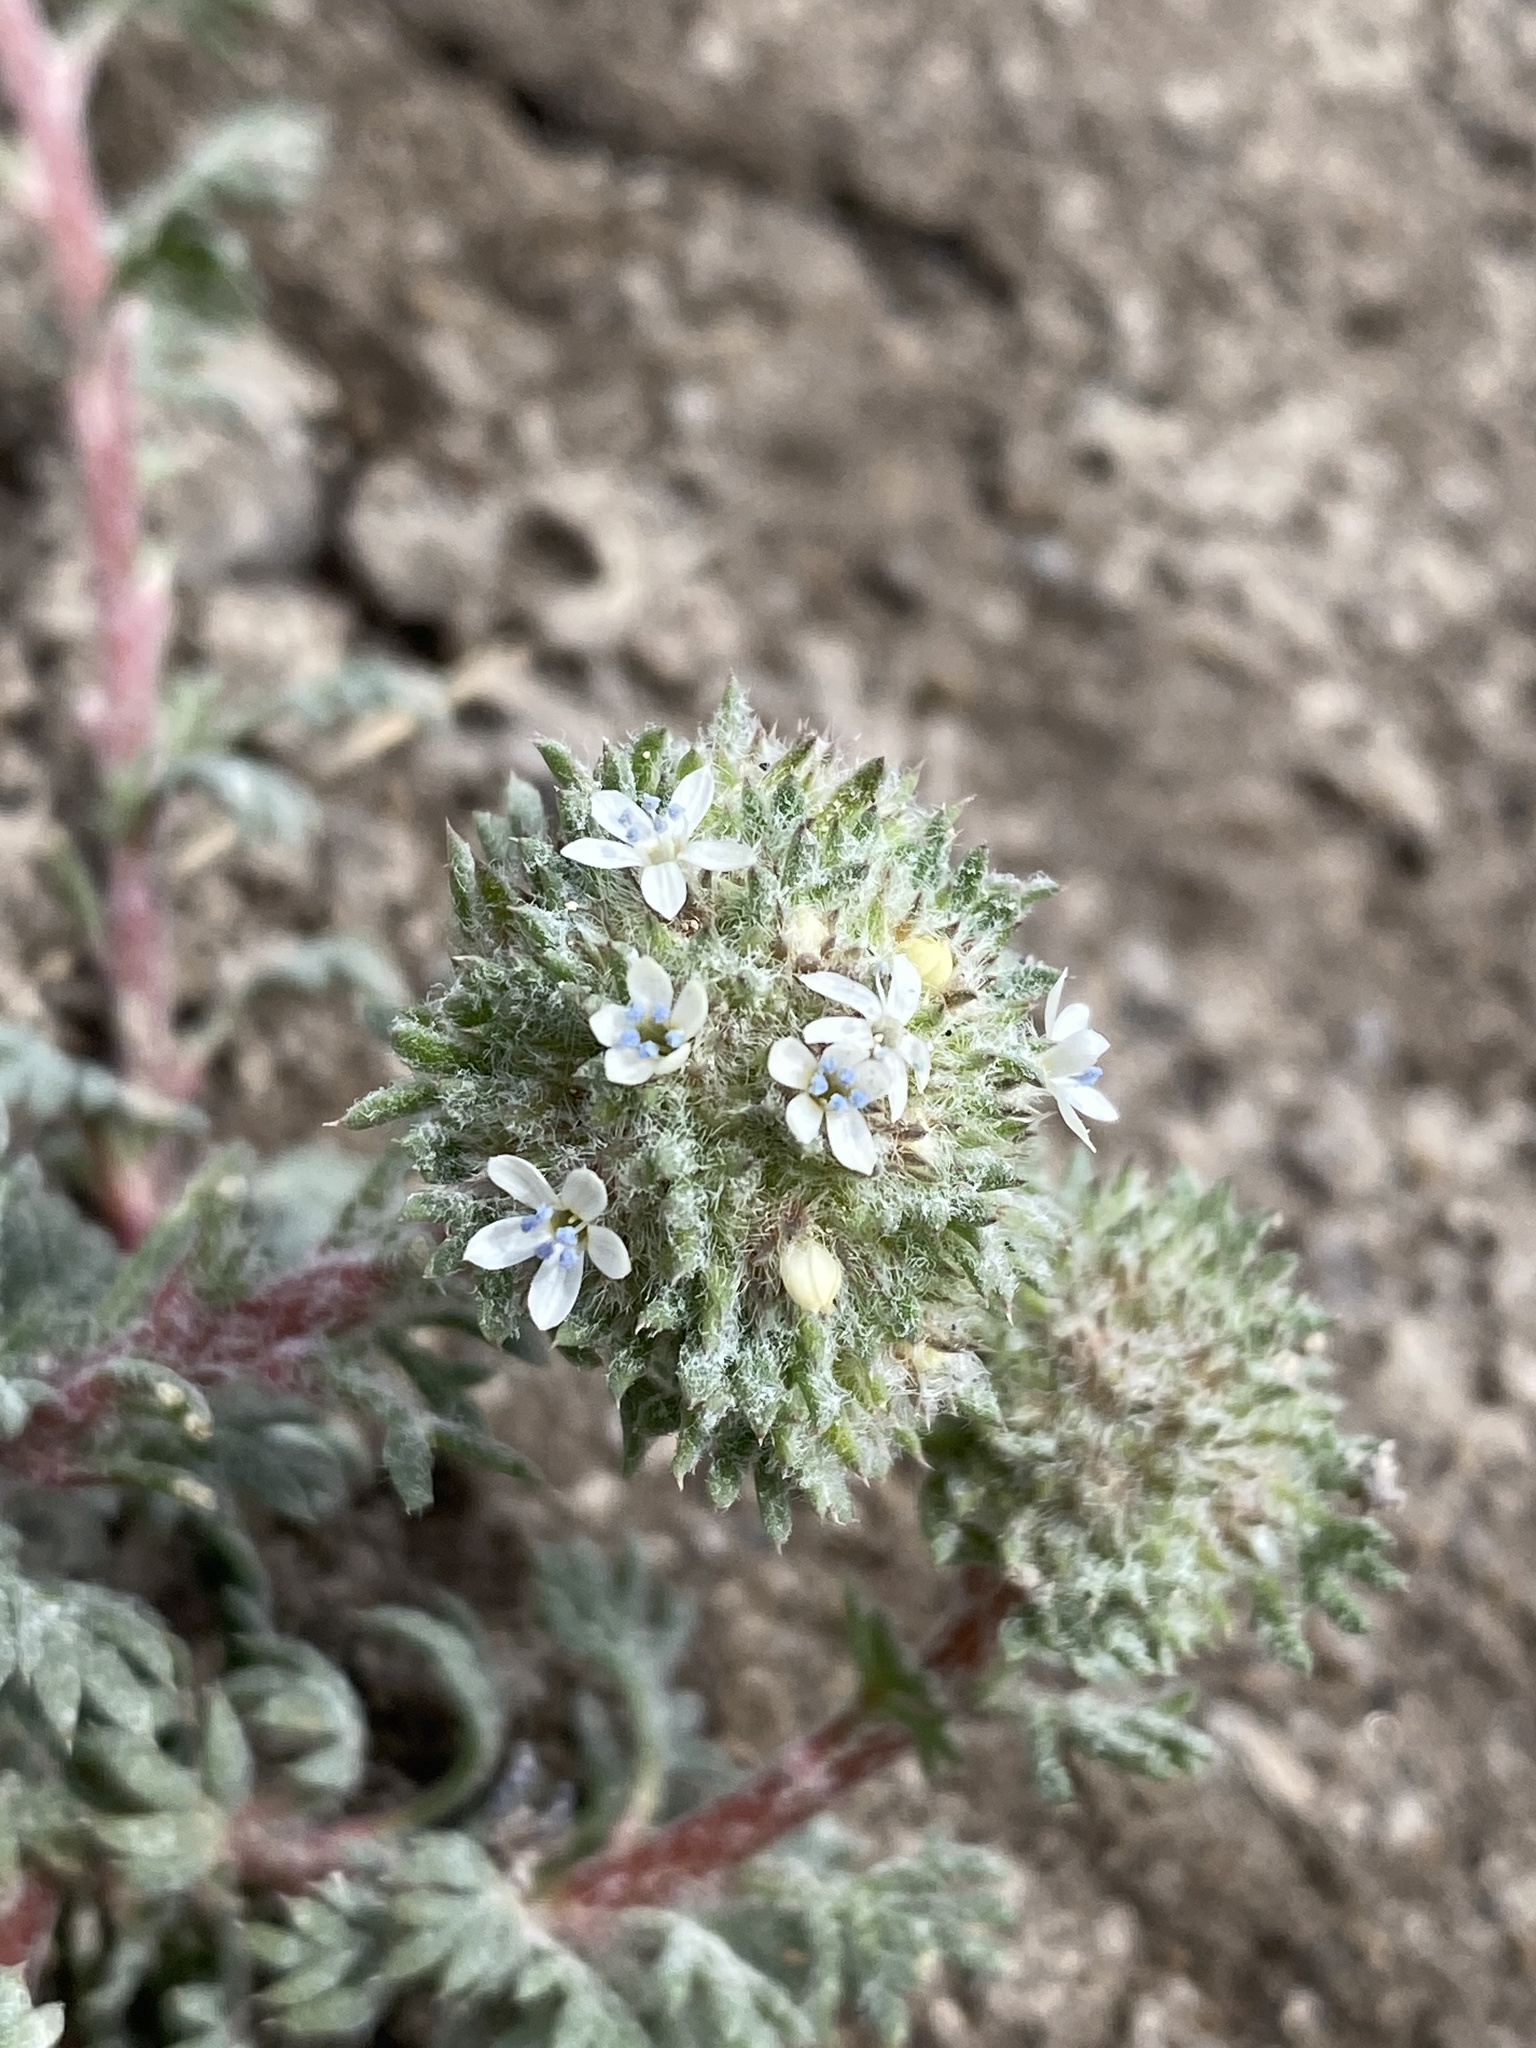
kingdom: Plantae
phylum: Tracheophyta
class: Magnoliopsida
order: Ericales
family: Polemoniaceae
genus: Ipomopsis
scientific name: Ipomopsis congesta
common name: Ball-head gilia
